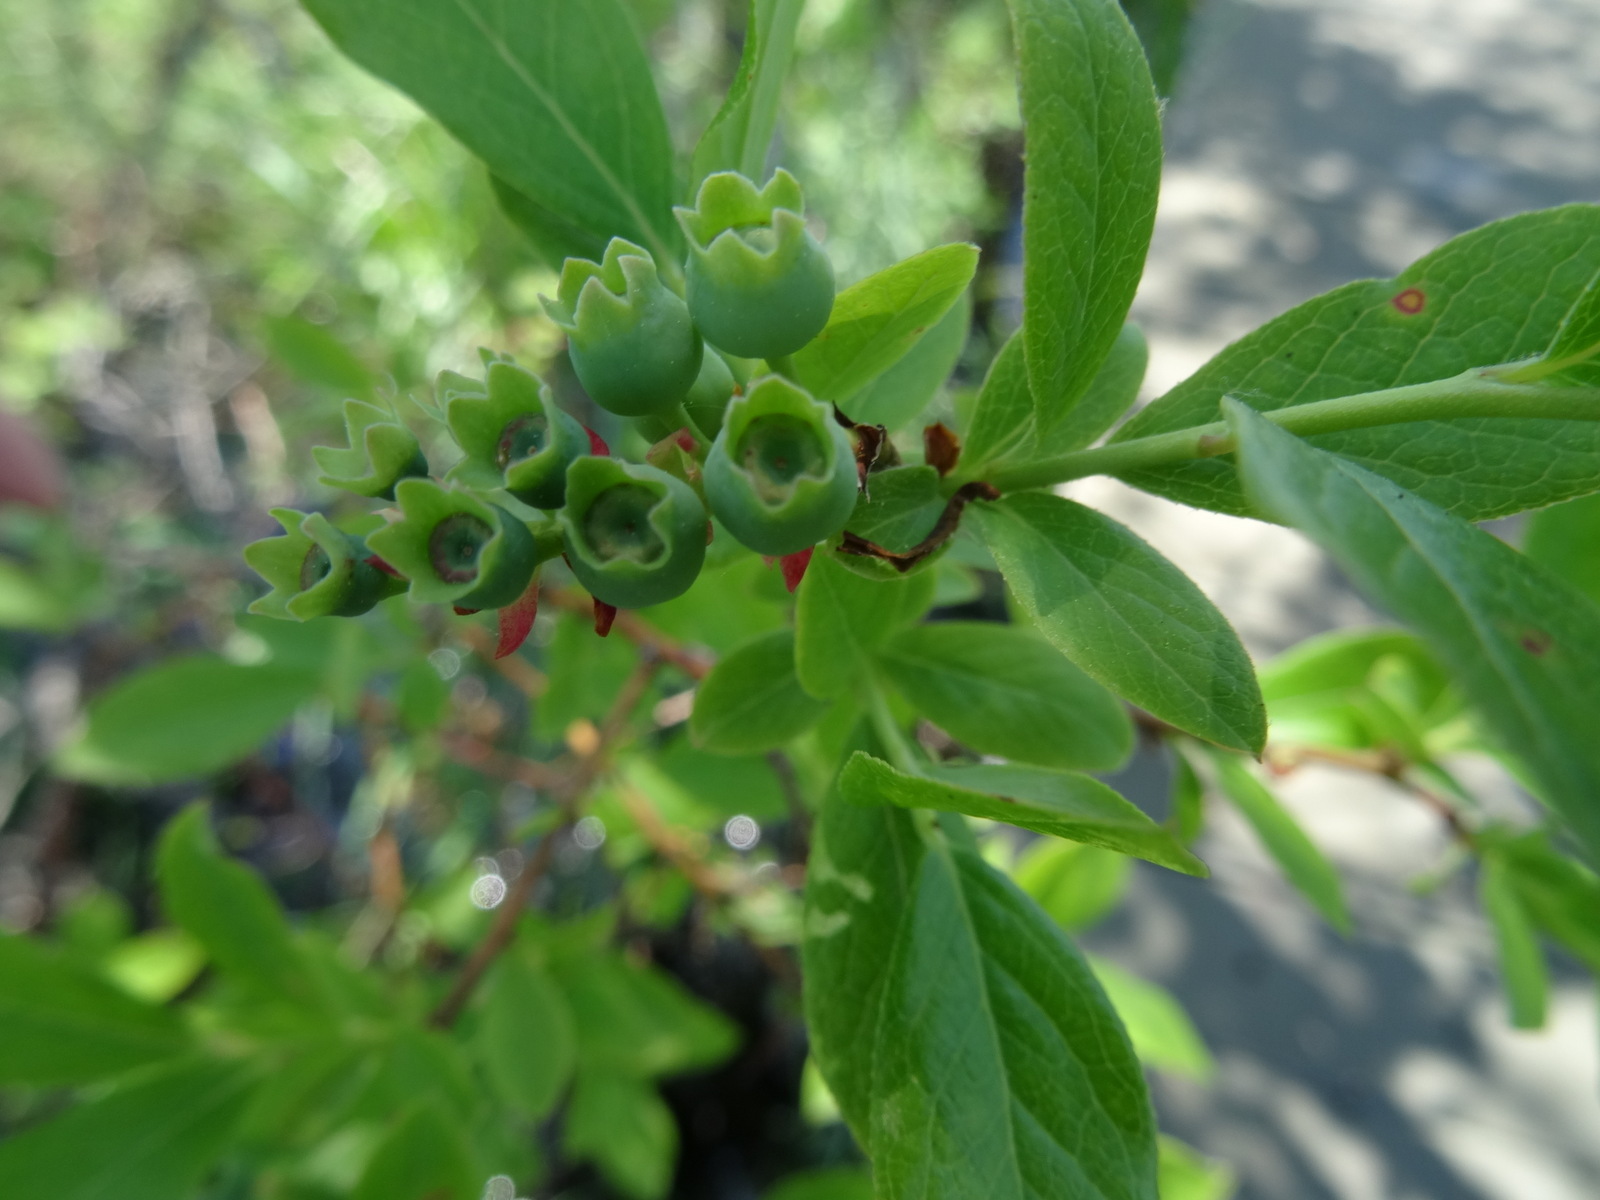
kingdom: Plantae
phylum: Tracheophyta
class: Magnoliopsida
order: Ericales
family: Ericaceae
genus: Vaccinium
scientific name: Vaccinium angustifolium
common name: Early lowbush blueberry
